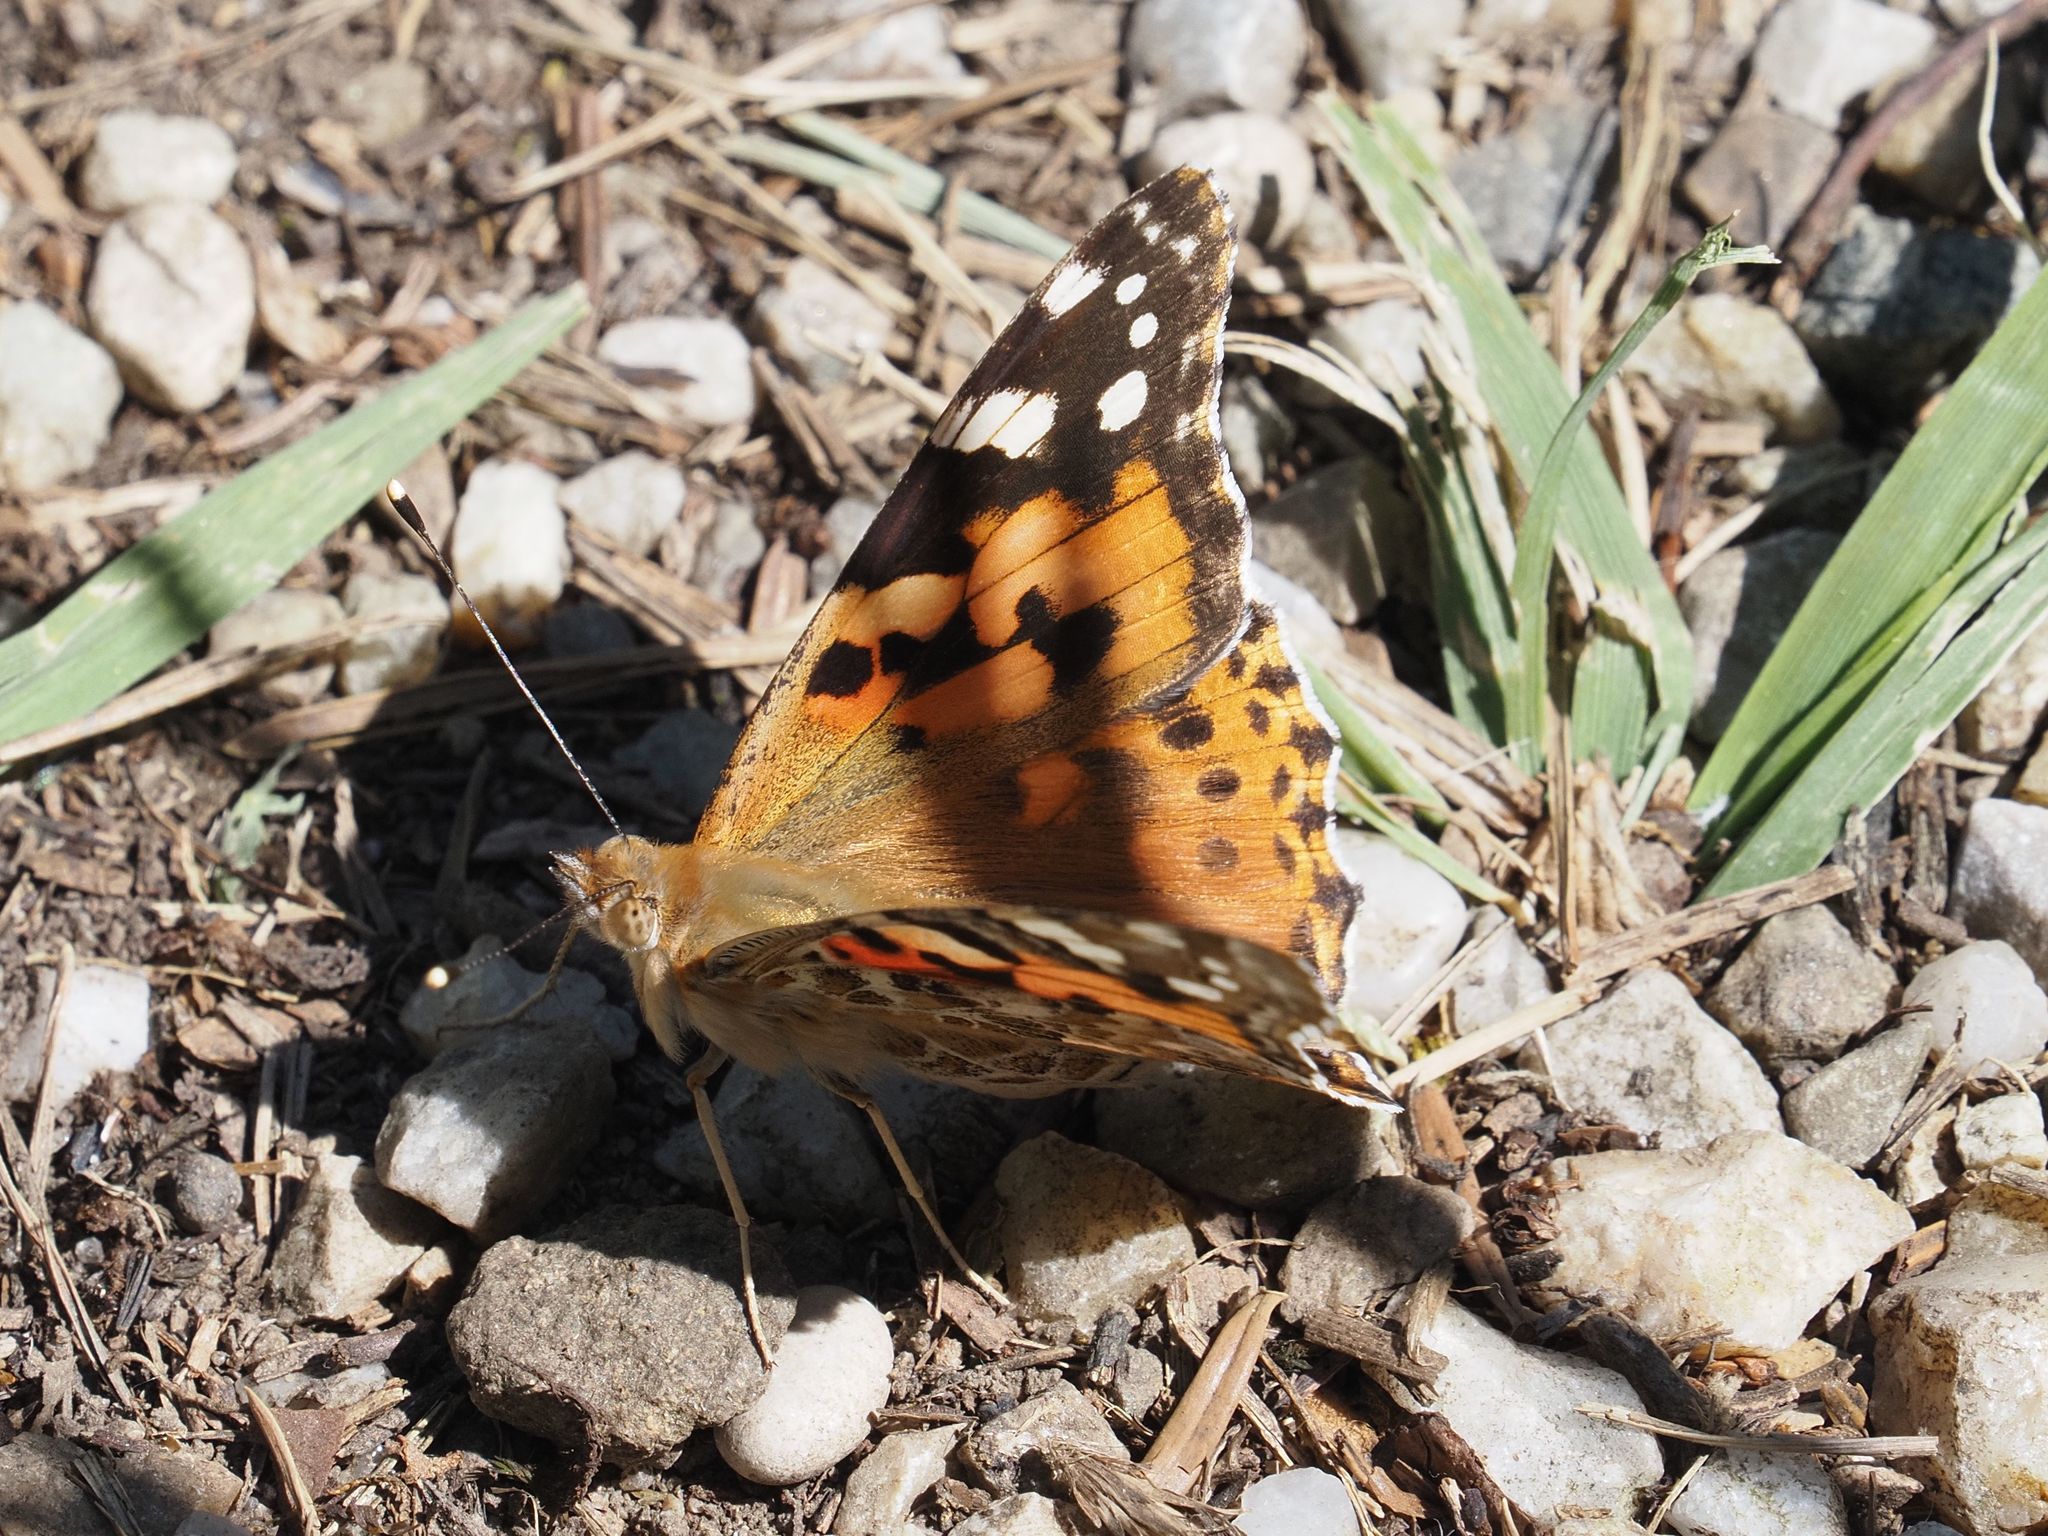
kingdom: Animalia
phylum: Arthropoda
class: Insecta
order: Lepidoptera
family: Nymphalidae
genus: Vanessa
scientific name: Vanessa cardui
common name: Painted lady
